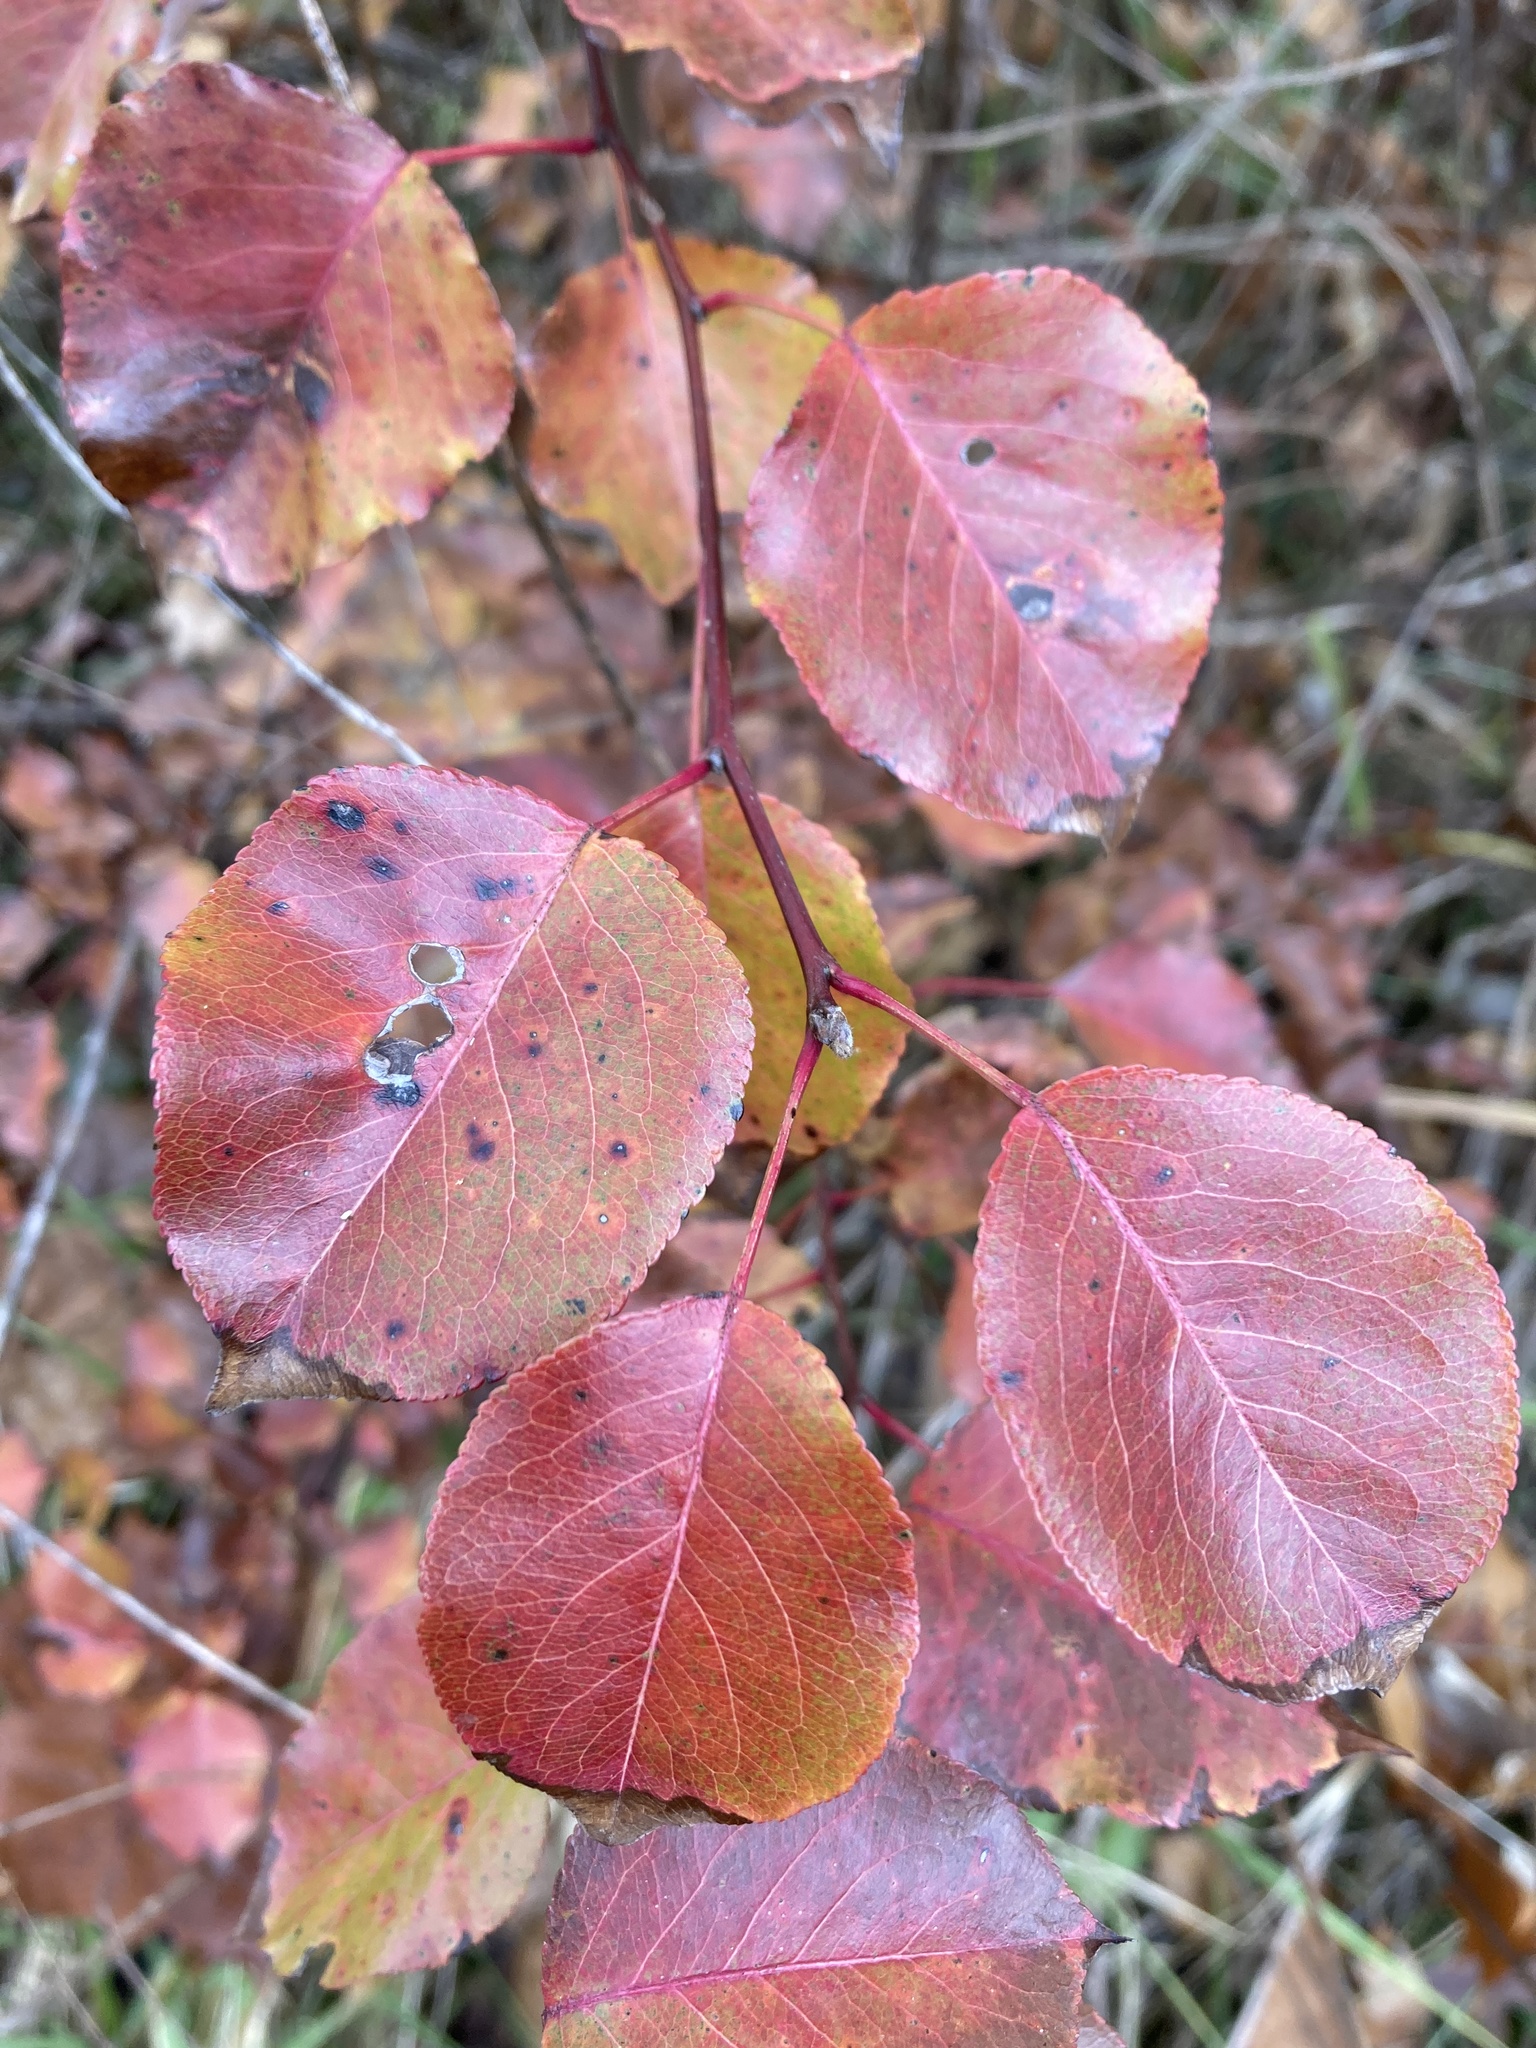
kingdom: Plantae
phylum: Tracheophyta
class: Magnoliopsida
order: Rosales
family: Rosaceae
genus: Pyrus
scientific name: Pyrus calleryana
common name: Callery pear
